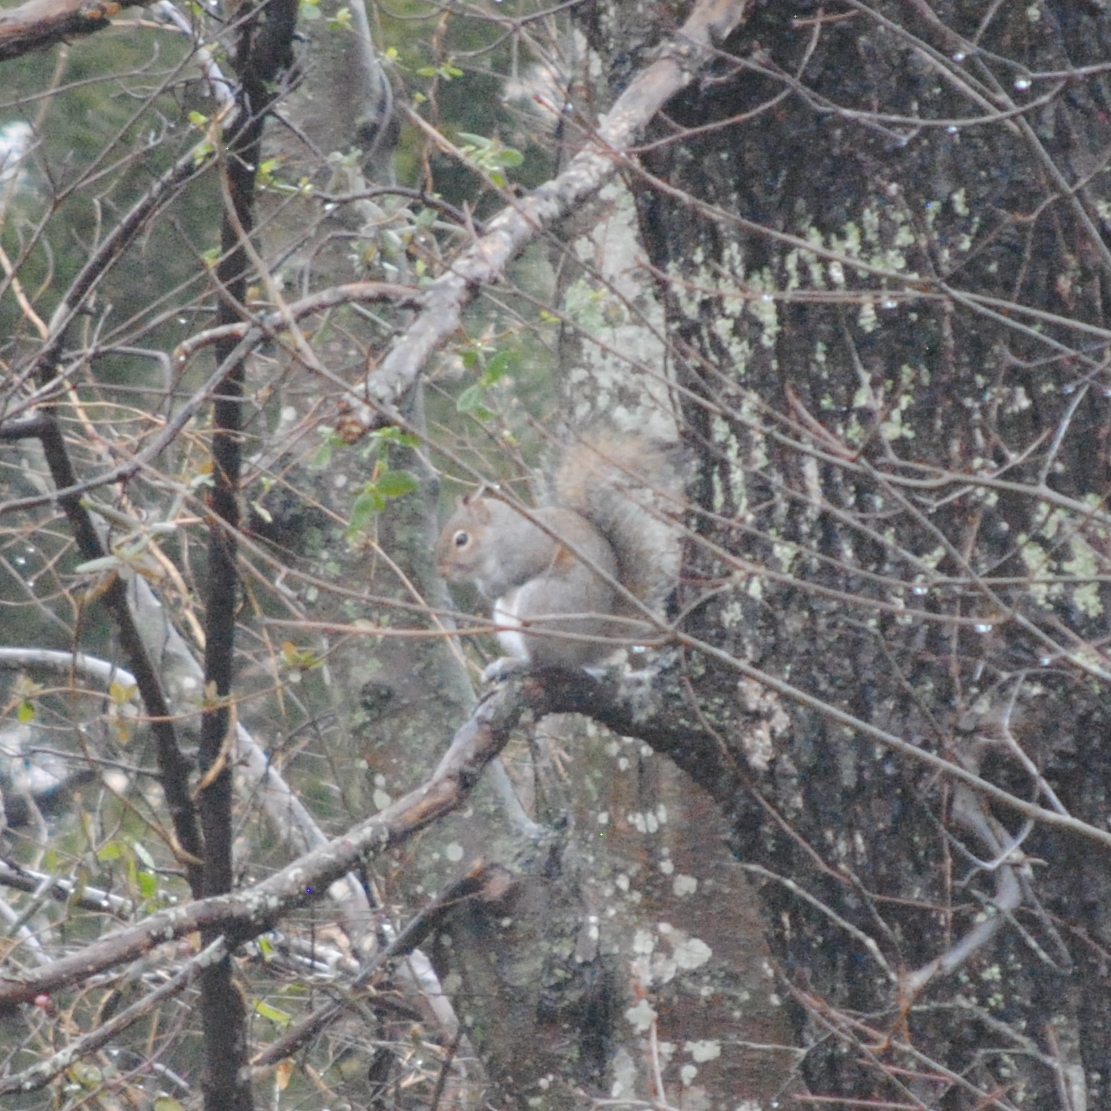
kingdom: Animalia
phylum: Chordata
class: Mammalia
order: Rodentia
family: Sciuridae
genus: Sciurus
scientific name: Sciurus carolinensis
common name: Eastern gray squirrel
